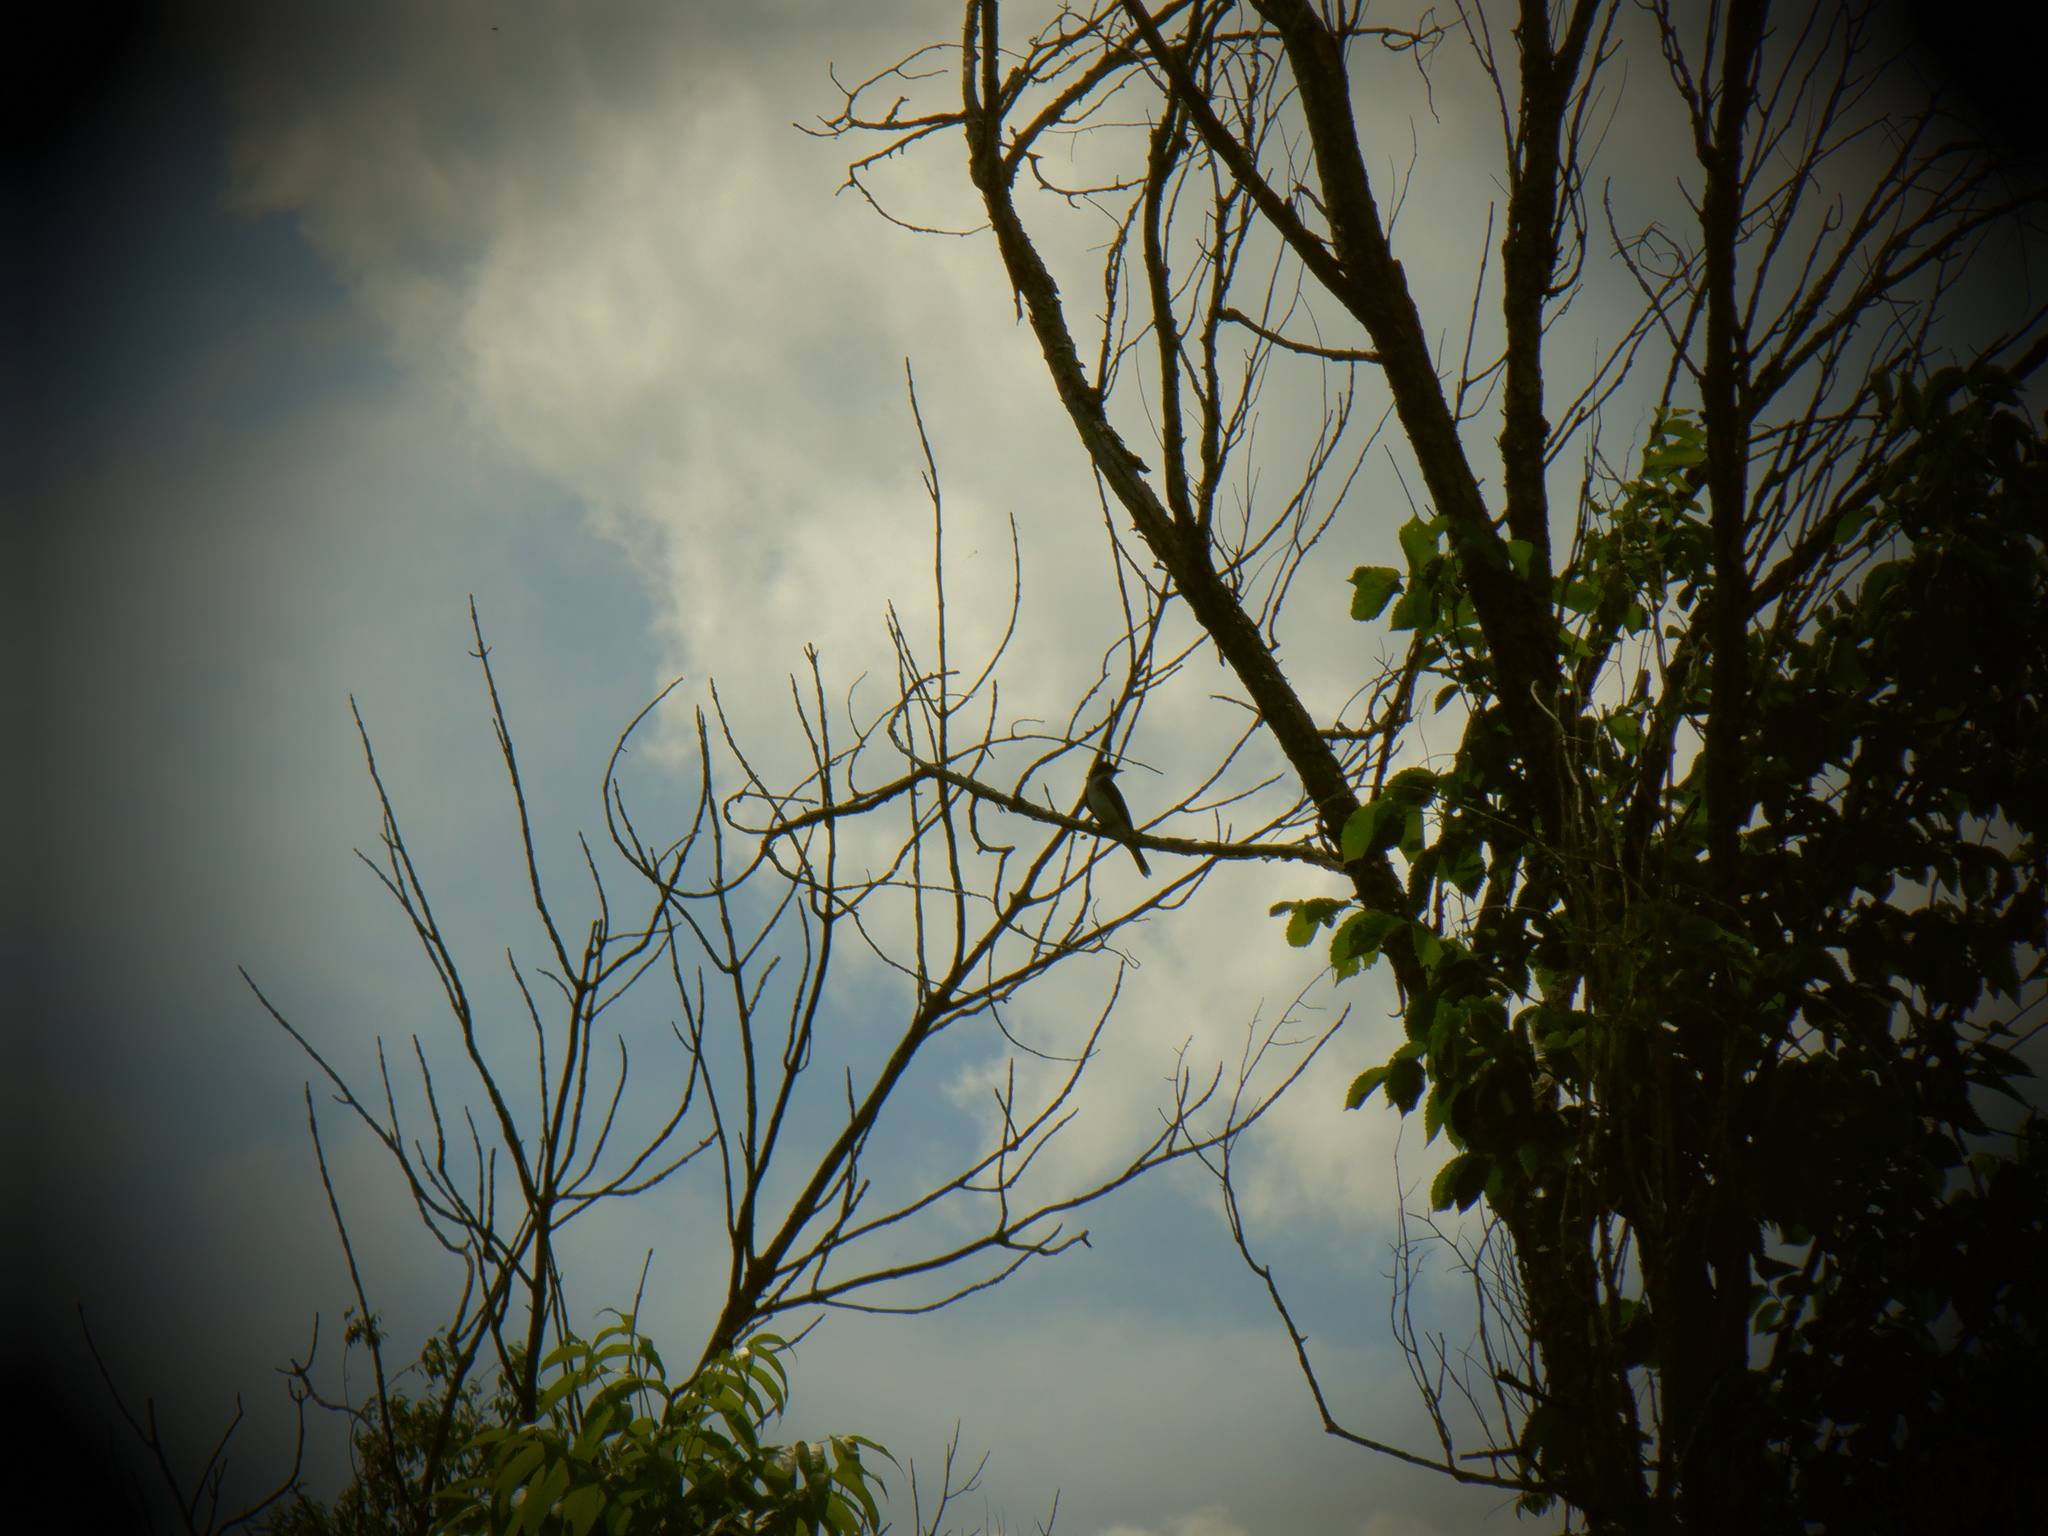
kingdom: Animalia
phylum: Chordata
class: Aves
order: Passeriformes
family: Tyrannidae
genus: Tyrannus
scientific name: Tyrannus tyrannus
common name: Eastern kingbird
